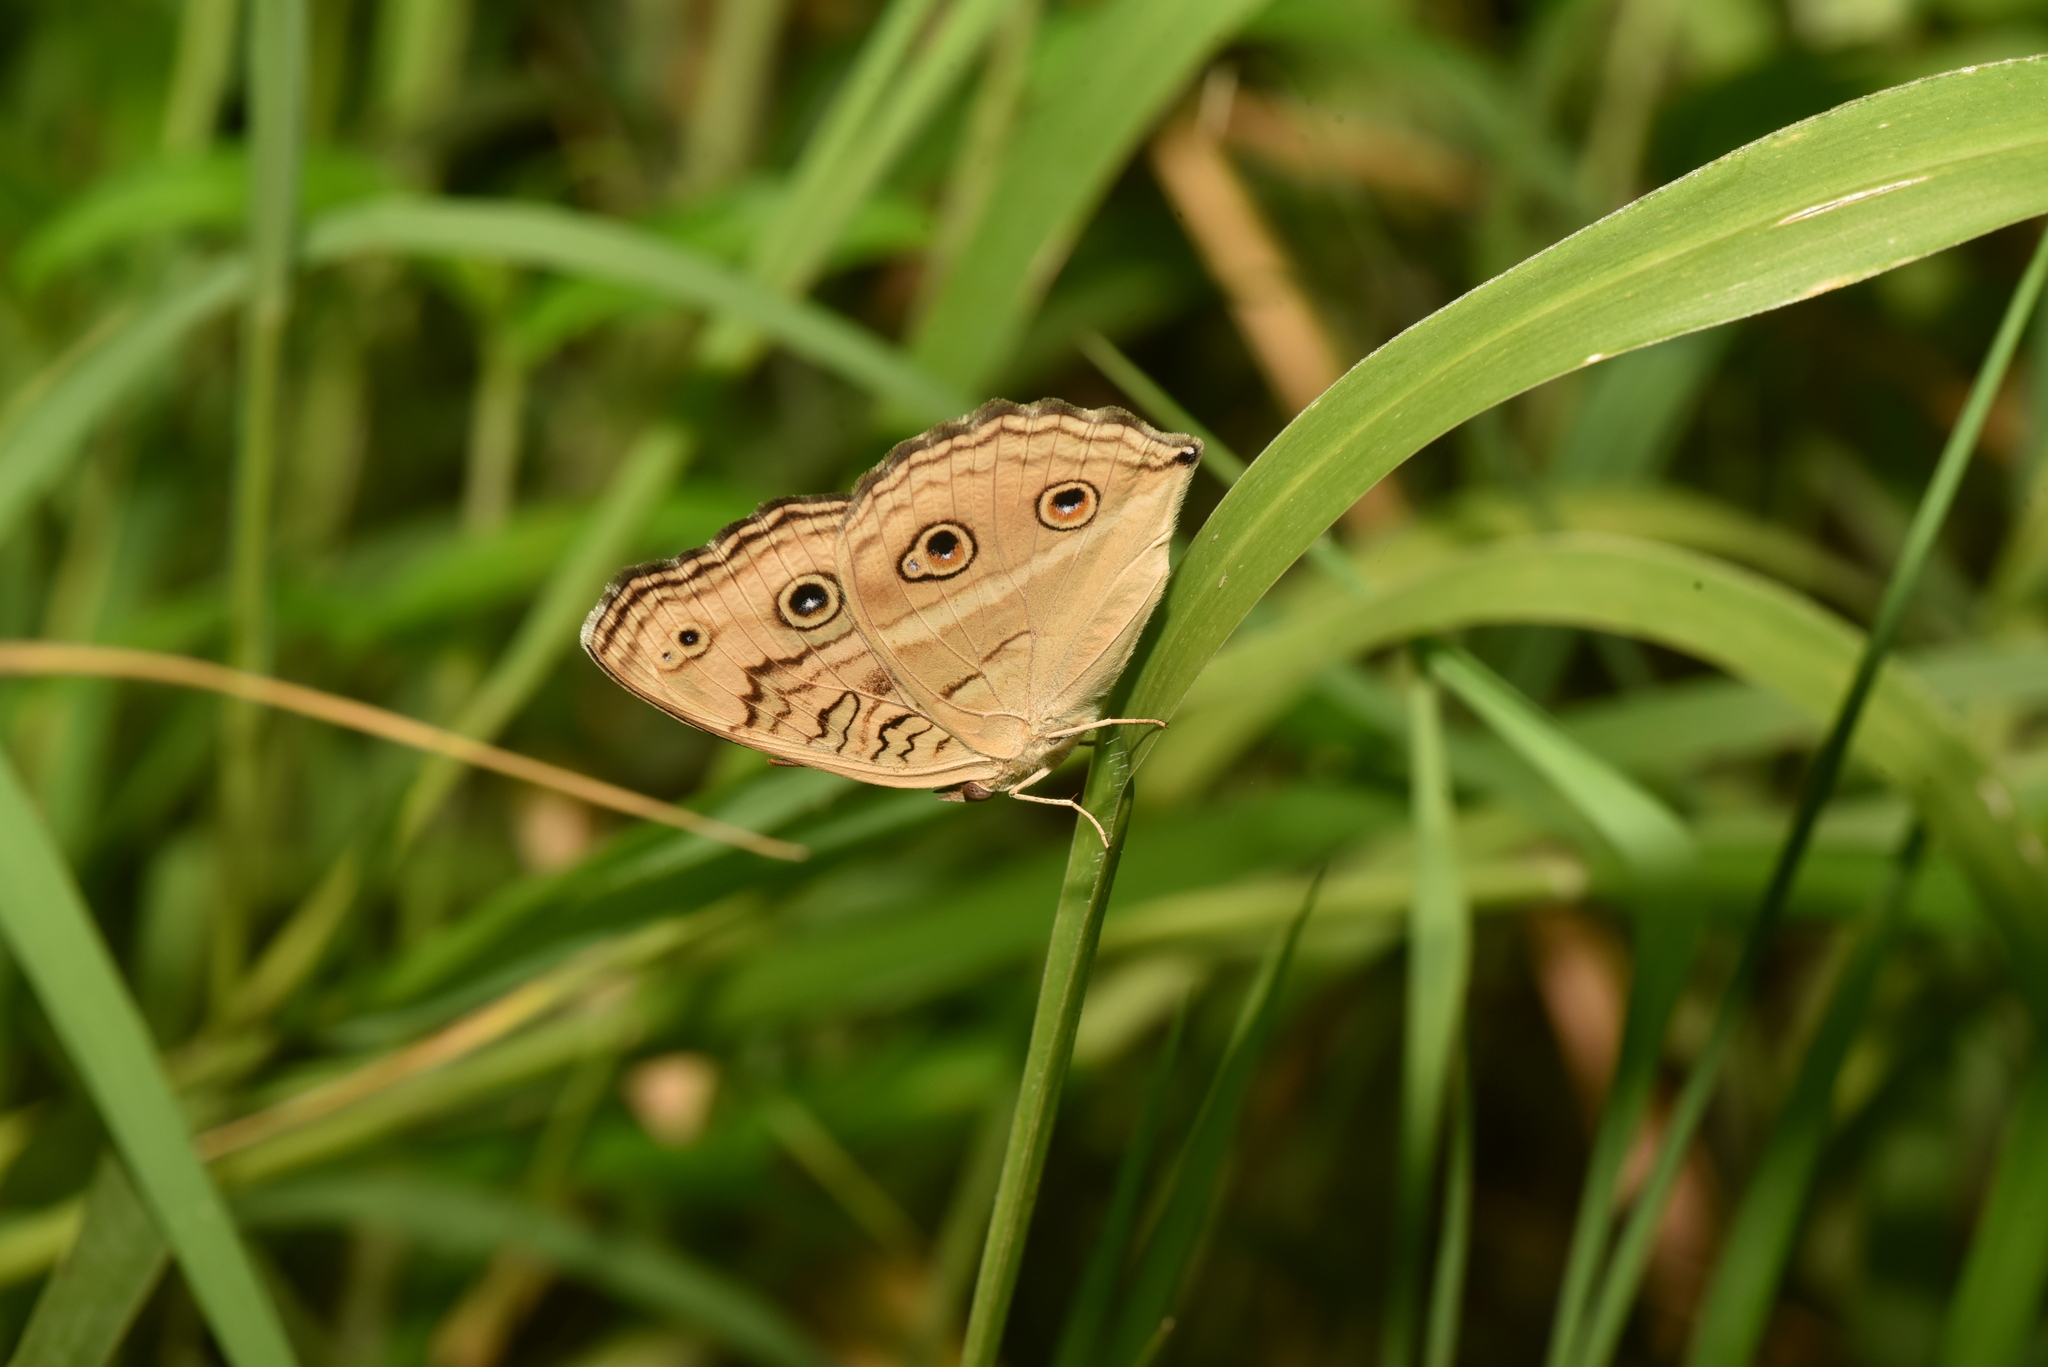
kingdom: Animalia
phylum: Arthropoda
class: Insecta
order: Lepidoptera
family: Nymphalidae
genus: Junonia
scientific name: Junonia almana
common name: Peacock pansy
